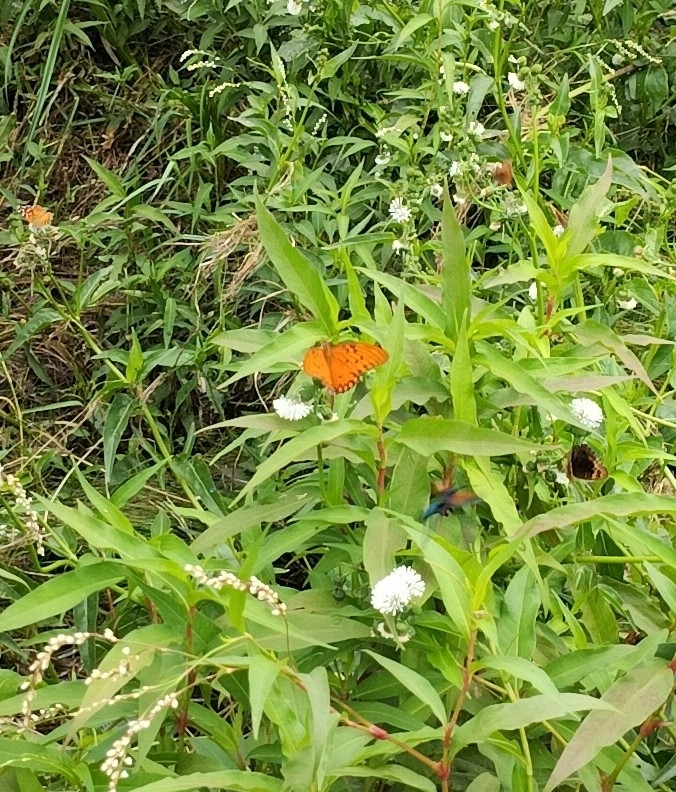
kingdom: Animalia
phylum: Arthropoda
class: Insecta
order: Lepidoptera
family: Nymphalidae
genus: Dione
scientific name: Dione vanillae
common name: Gulf fritillary
